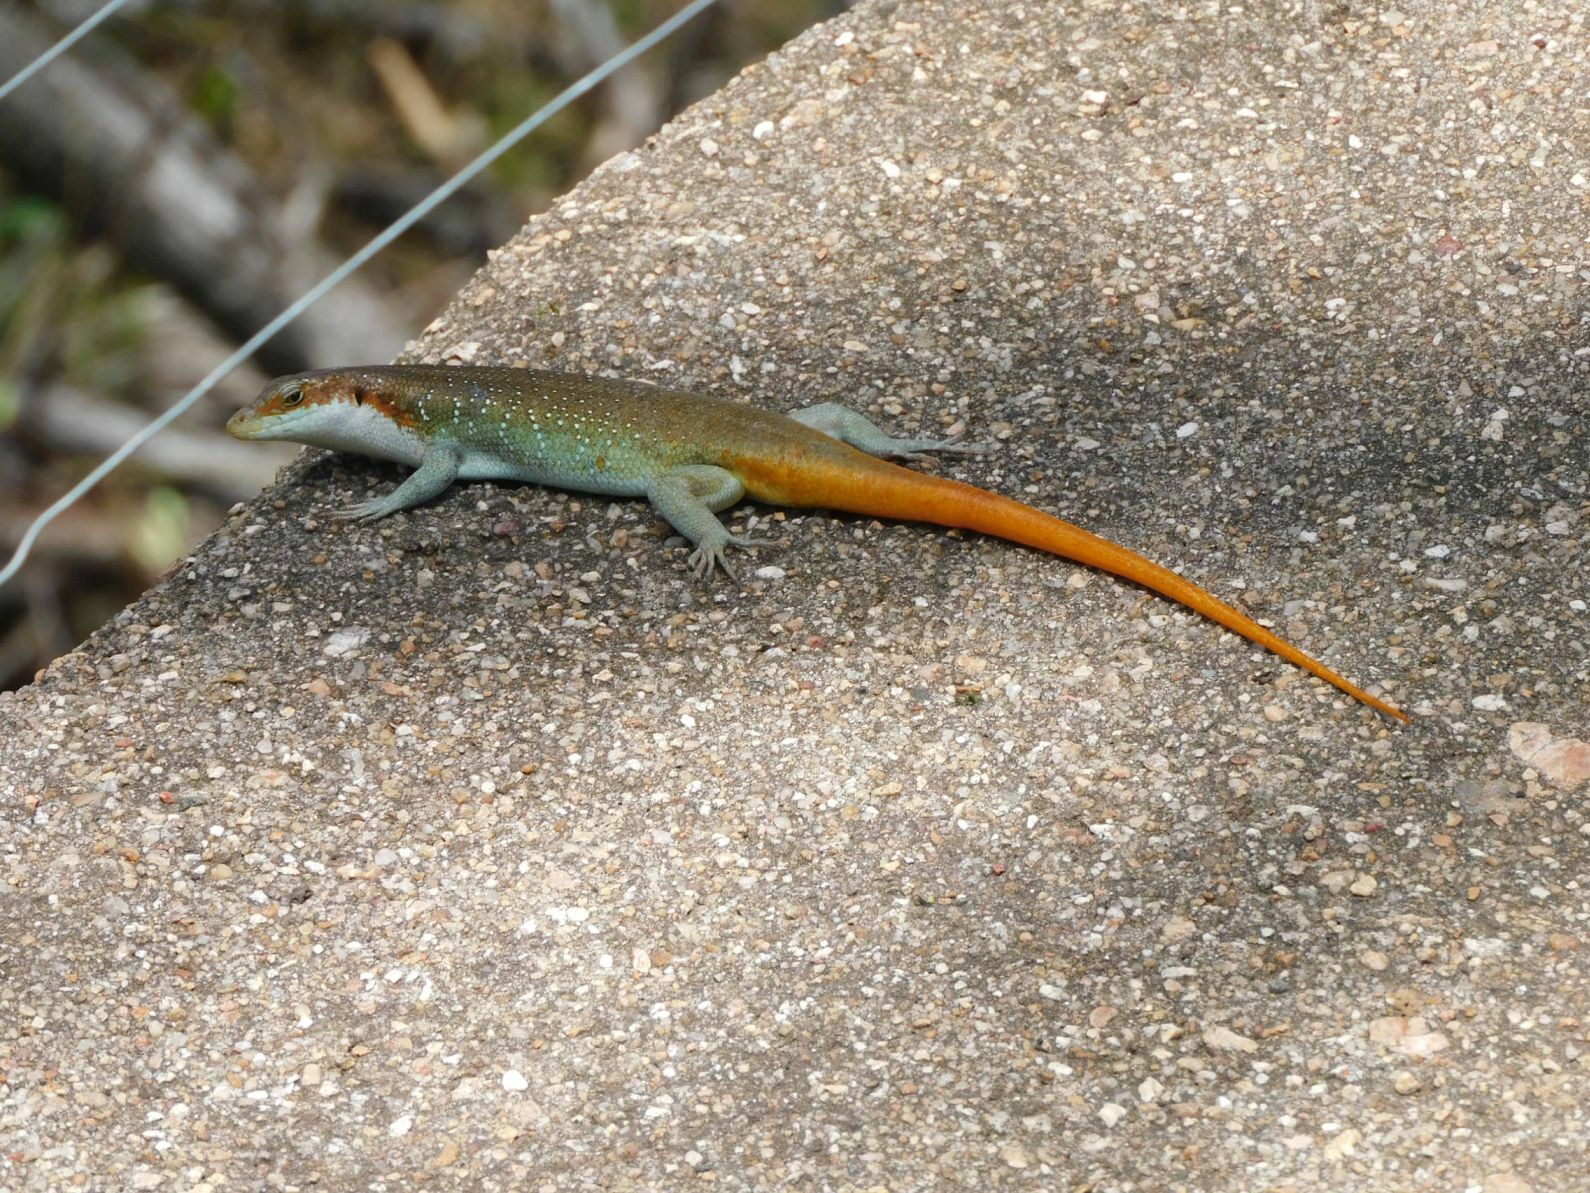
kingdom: Animalia
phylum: Chordata
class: Squamata
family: Scincidae
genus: Trachylepis
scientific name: Trachylepis margaritifera
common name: Rainbow skink
